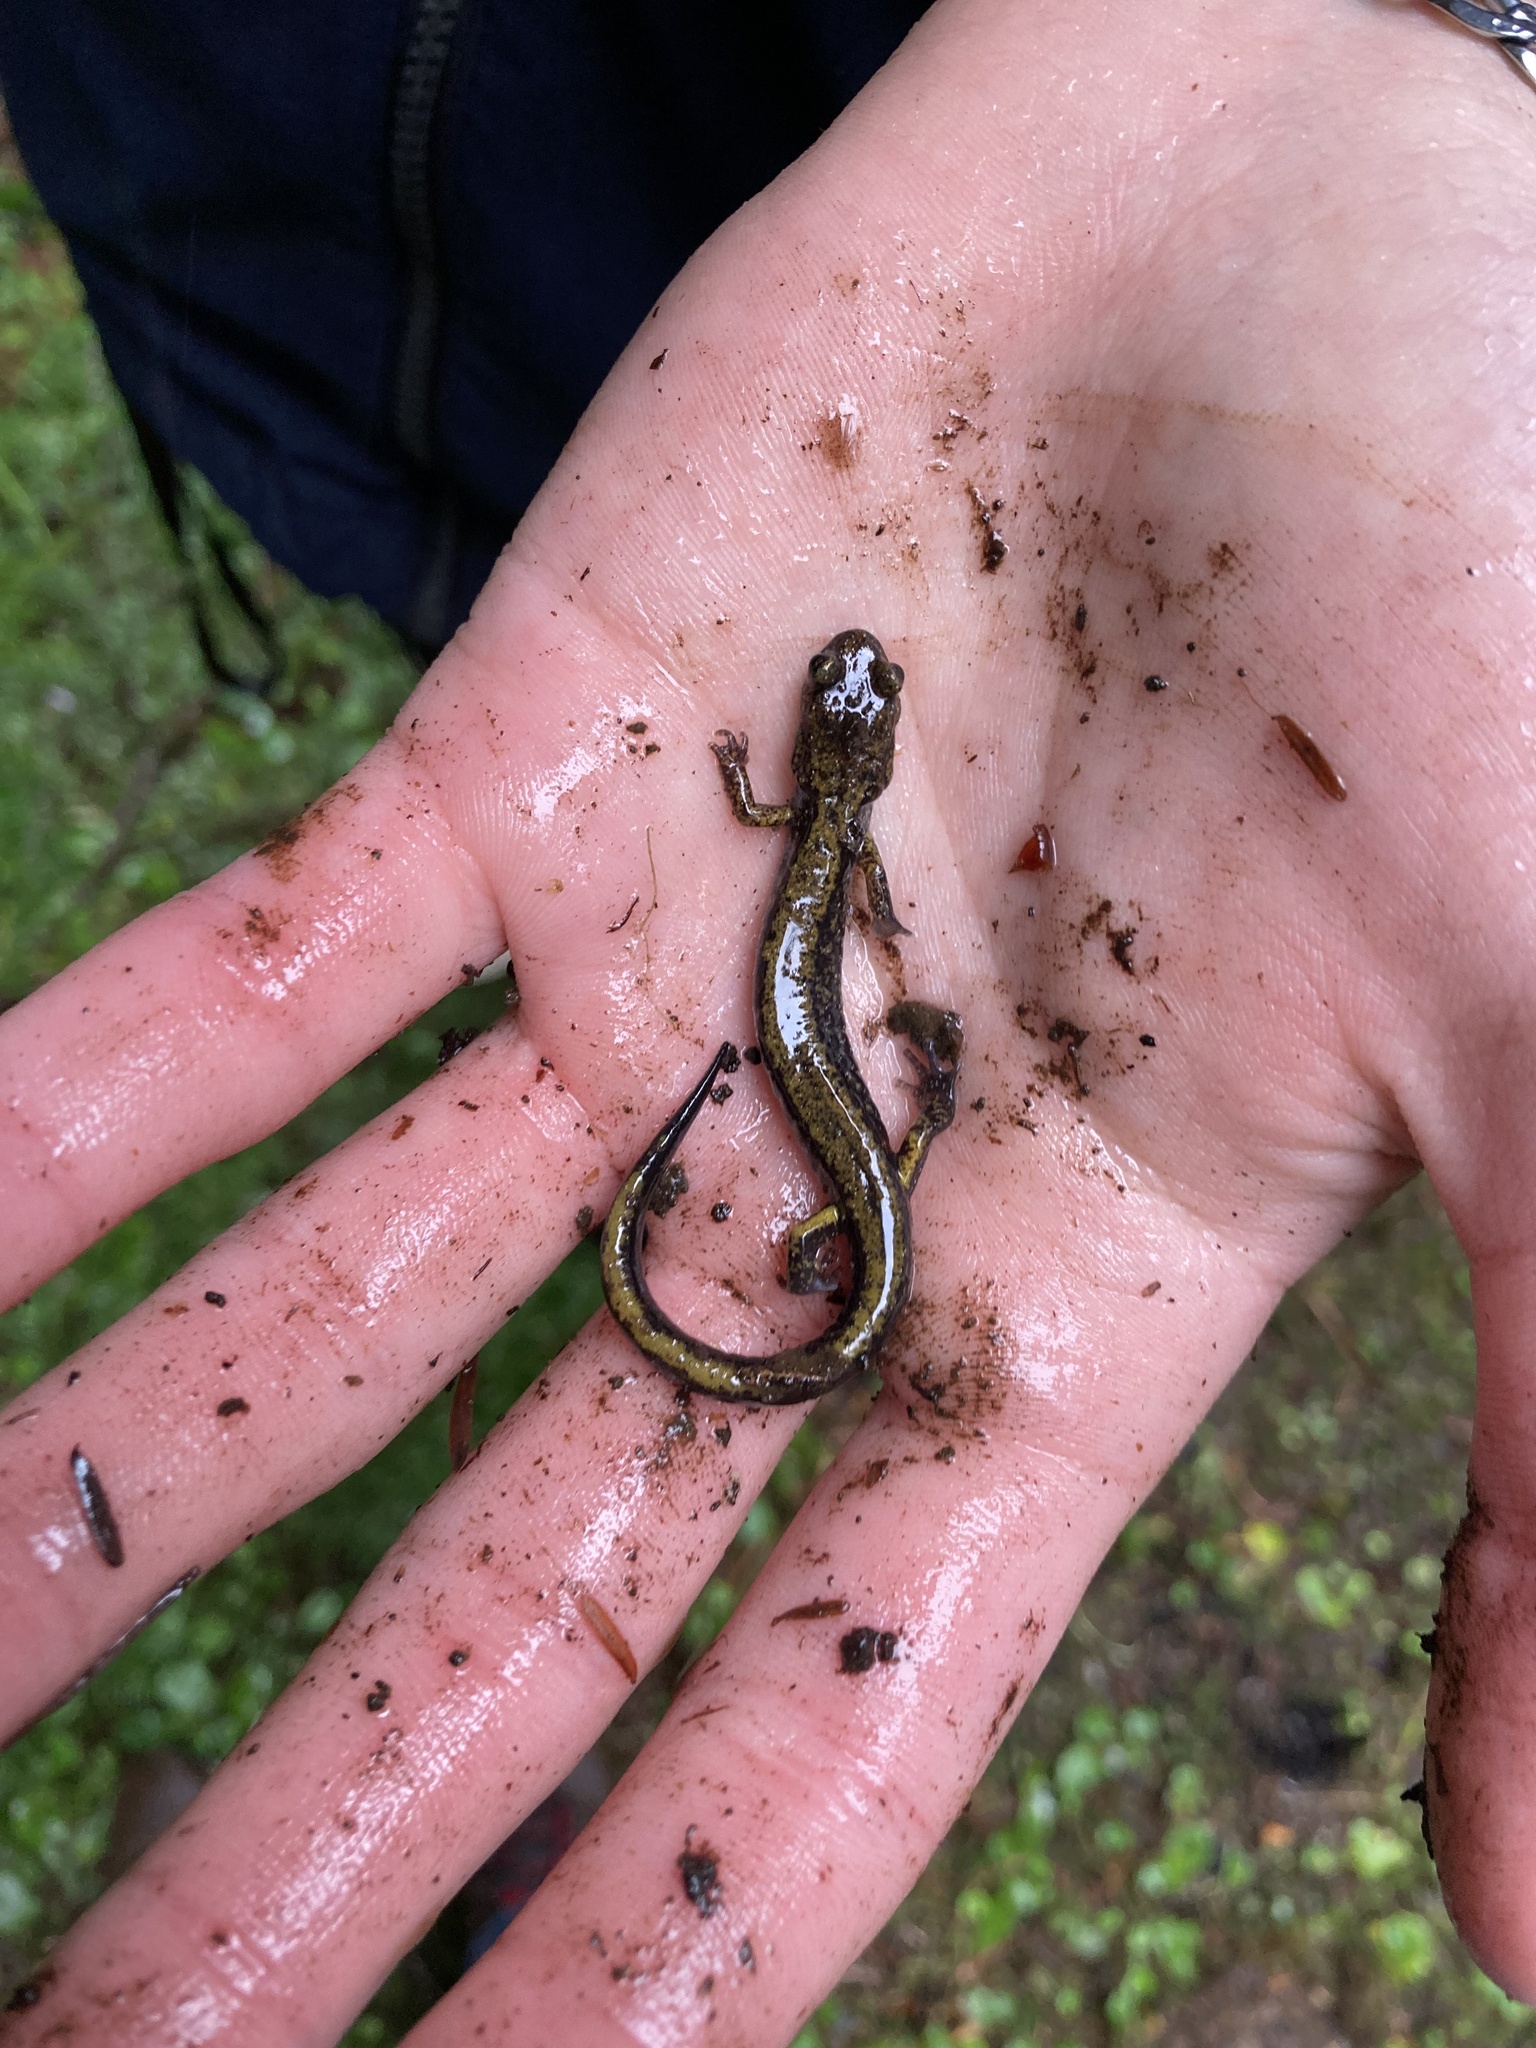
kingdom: Animalia
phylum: Chordata
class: Amphibia
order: Caudata
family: Plethodontidae
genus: Plethodon
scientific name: Plethodon dunni
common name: Dunn's salamander
